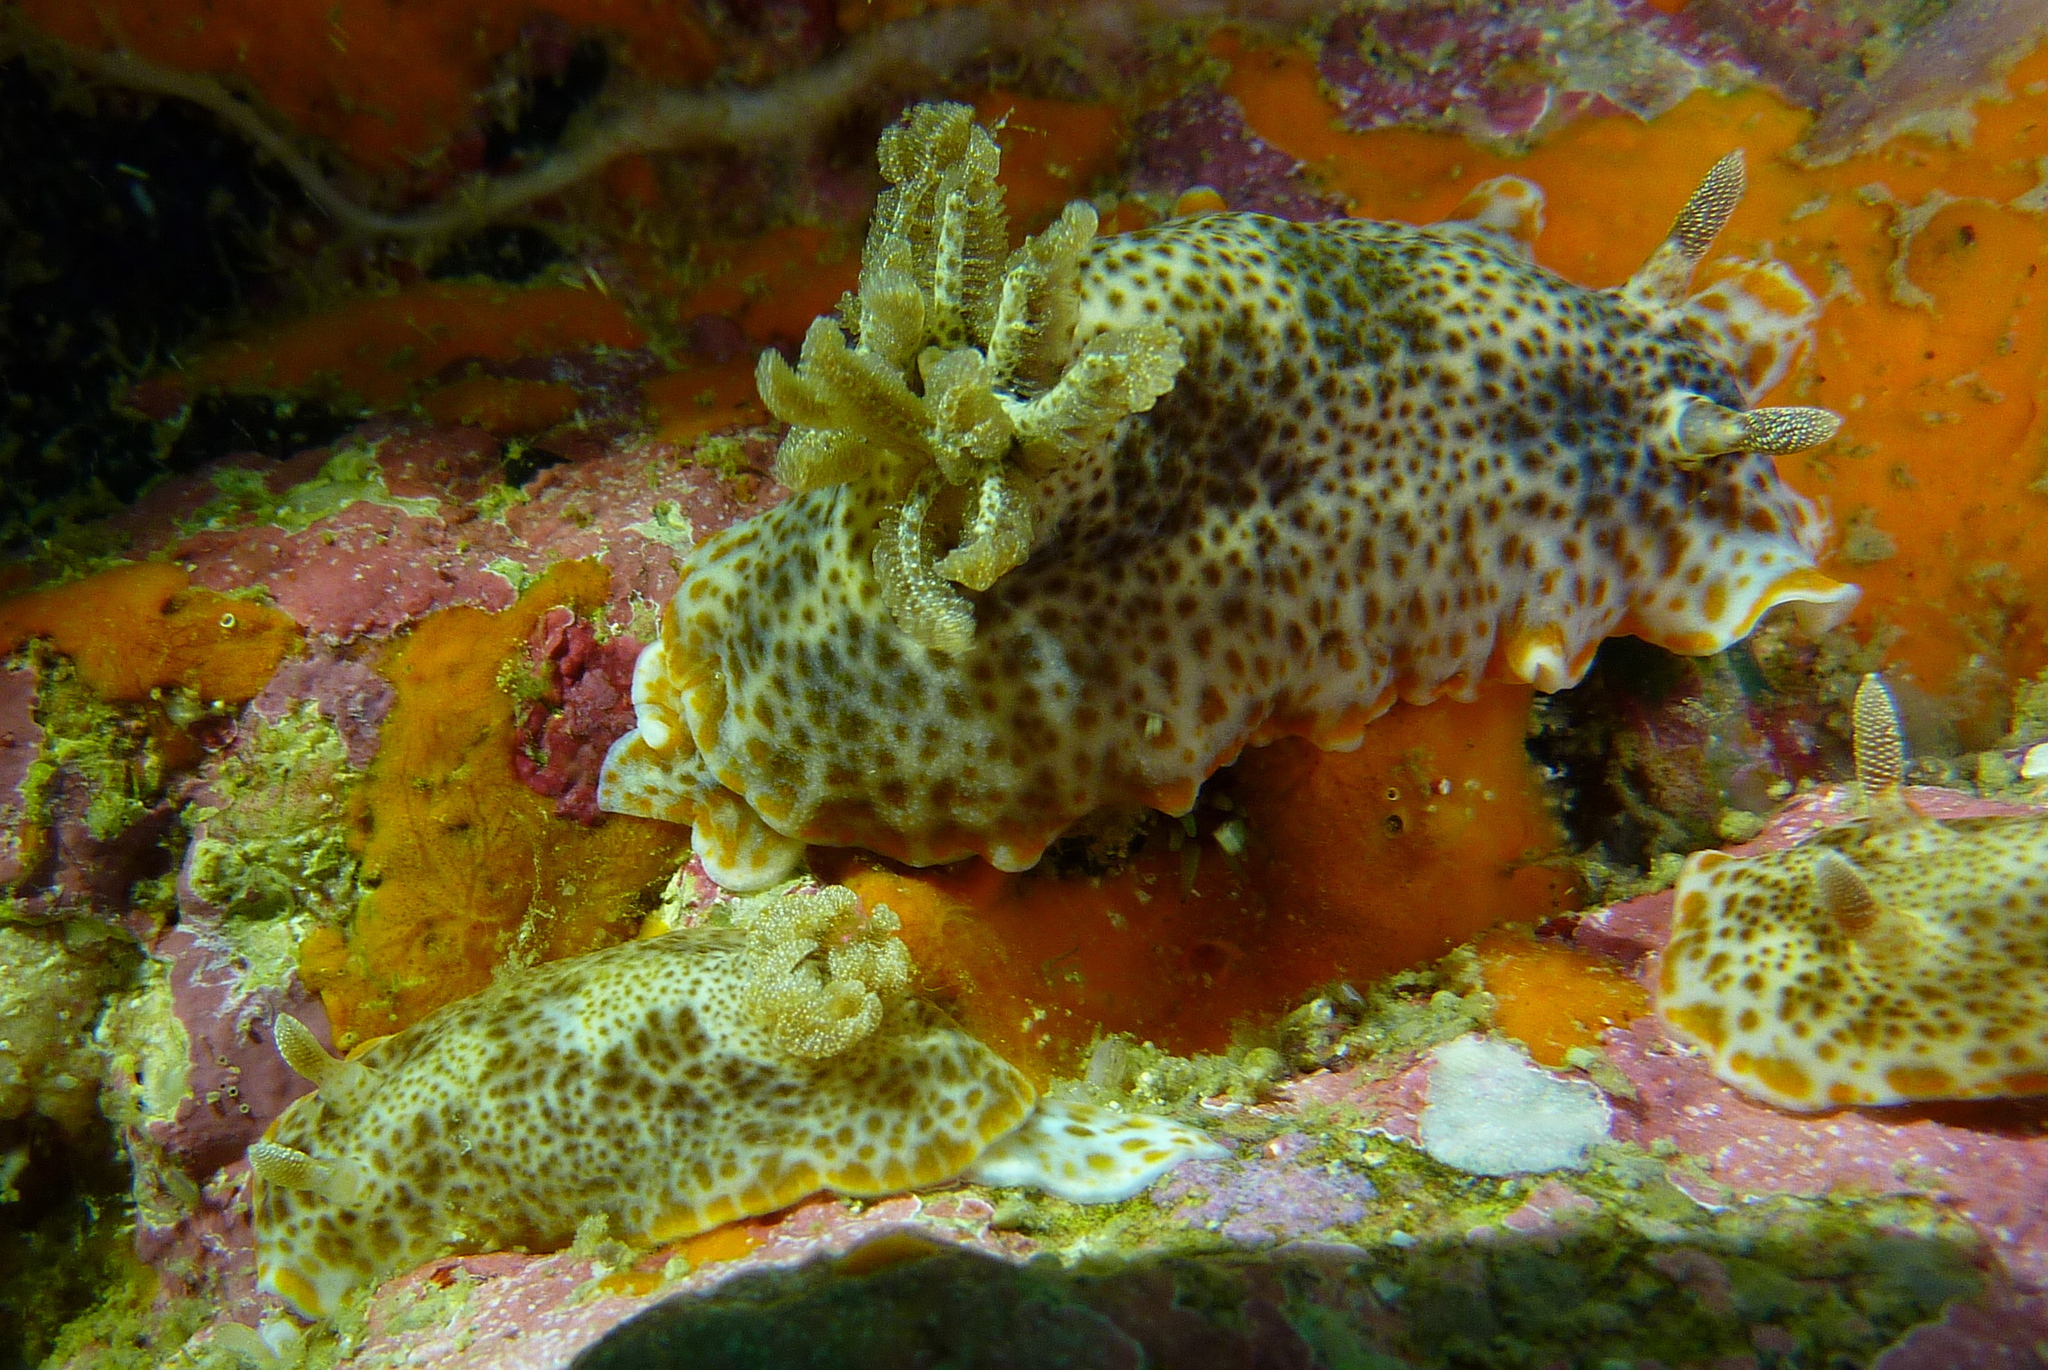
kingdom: Animalia
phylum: Mollusca
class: Gastropoda
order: Nudibranchia
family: Chromodorididae
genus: Chromodoris
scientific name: Chromodoris mandapamensis
